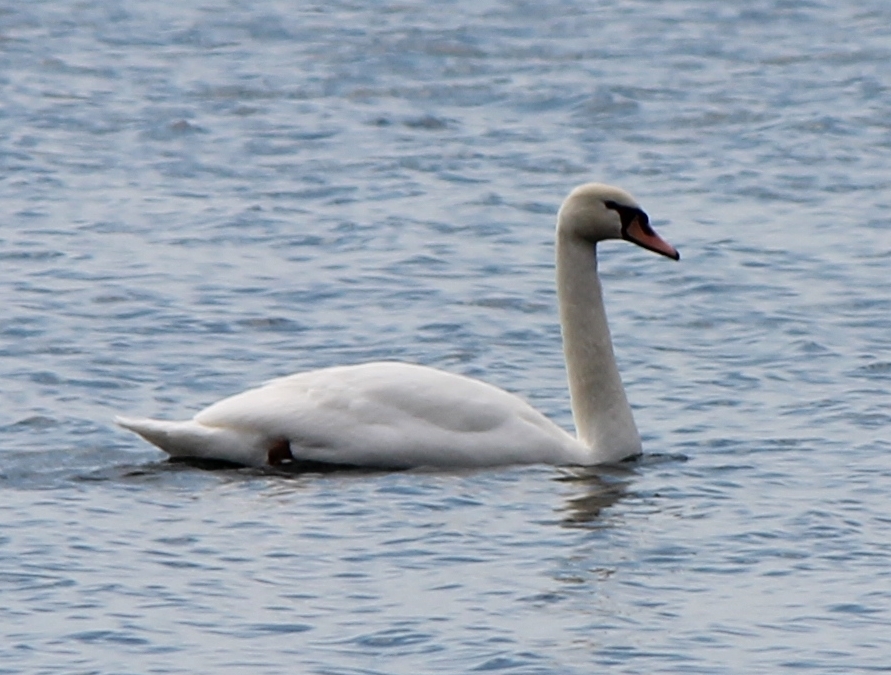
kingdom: Animalia
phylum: Chordata
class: Aves
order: Anseriformes
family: Anatidae
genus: Cygnus
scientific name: Cygnus olor
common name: Mute swan
